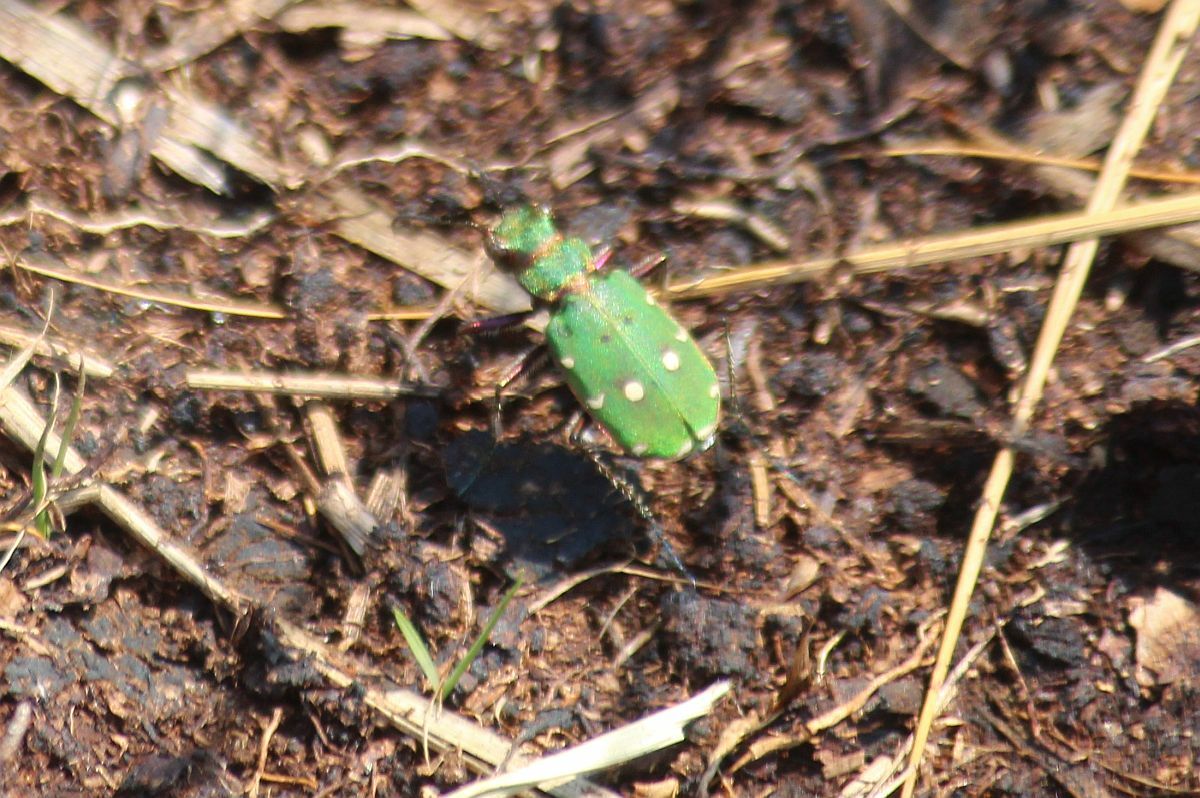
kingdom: Animalia
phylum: Arthropoda
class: Insecta
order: Coleoptera
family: Carabidae
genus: Cicindela
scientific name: Cicindela campestris
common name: Common tiger beetle
